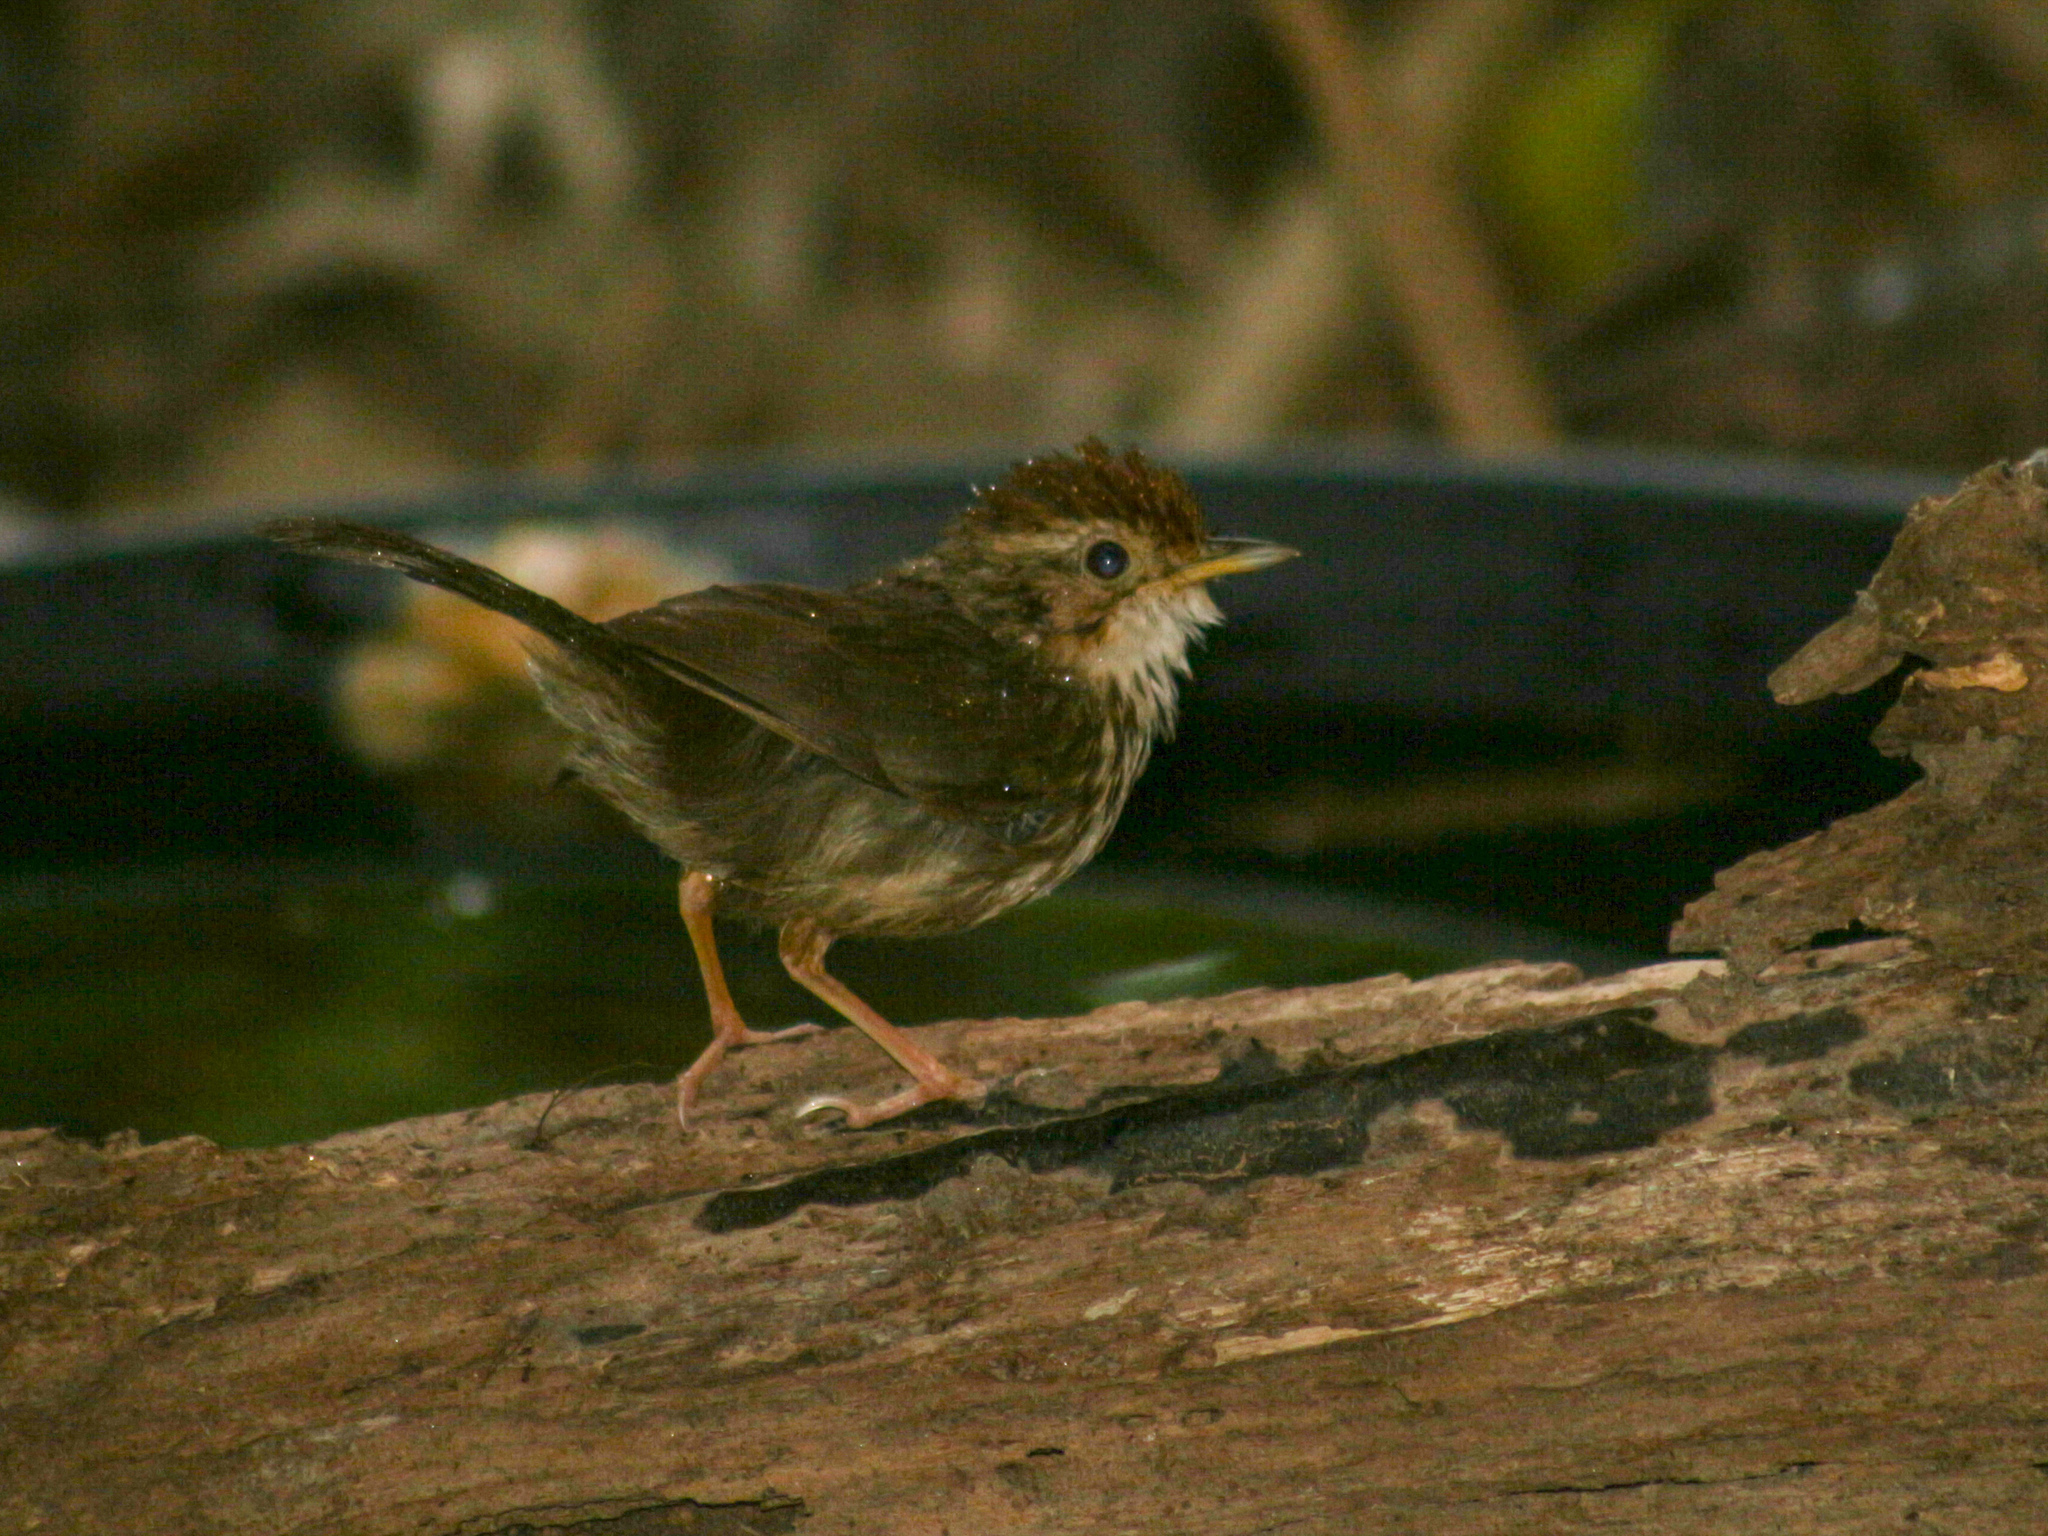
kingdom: Animalia
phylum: Chordata
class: Aves
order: Passeriformes
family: Pellorneidae
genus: Pellorneum
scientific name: Pellorneum ruficeps
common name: Puff-throated babbler
